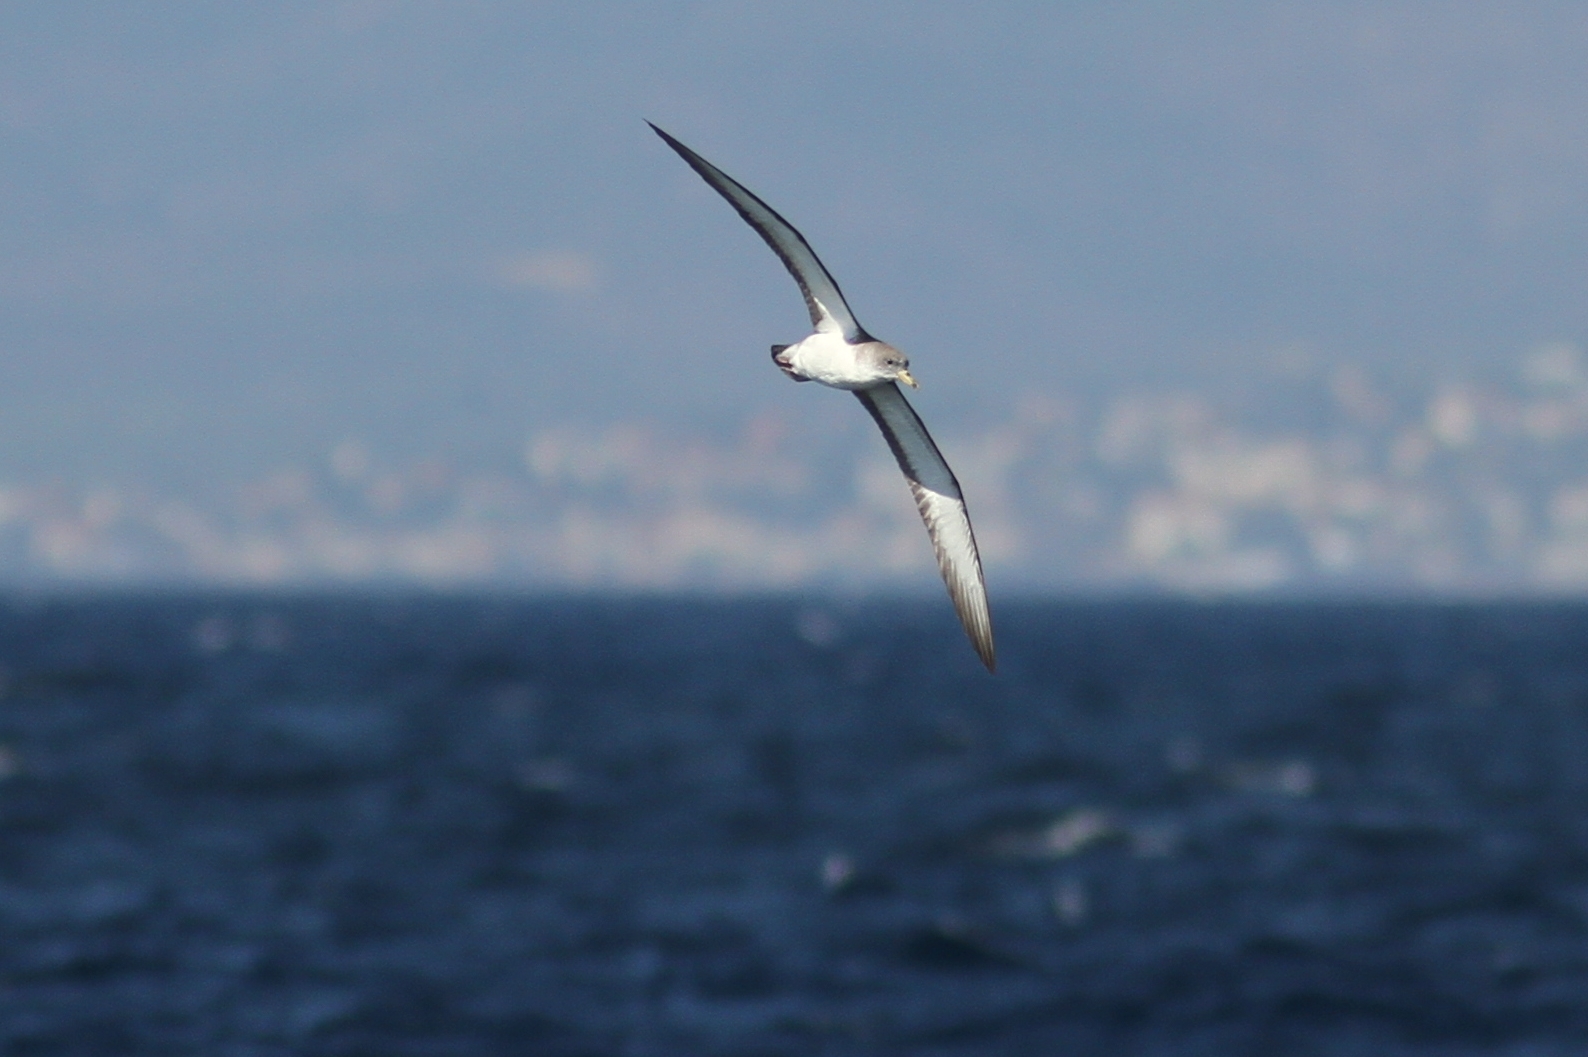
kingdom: Animalia
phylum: Chordata
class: Aves
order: Procellariiformes
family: Procellariidae
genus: Calonectris
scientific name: Calonectris diomedea
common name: Cory's shearwater
